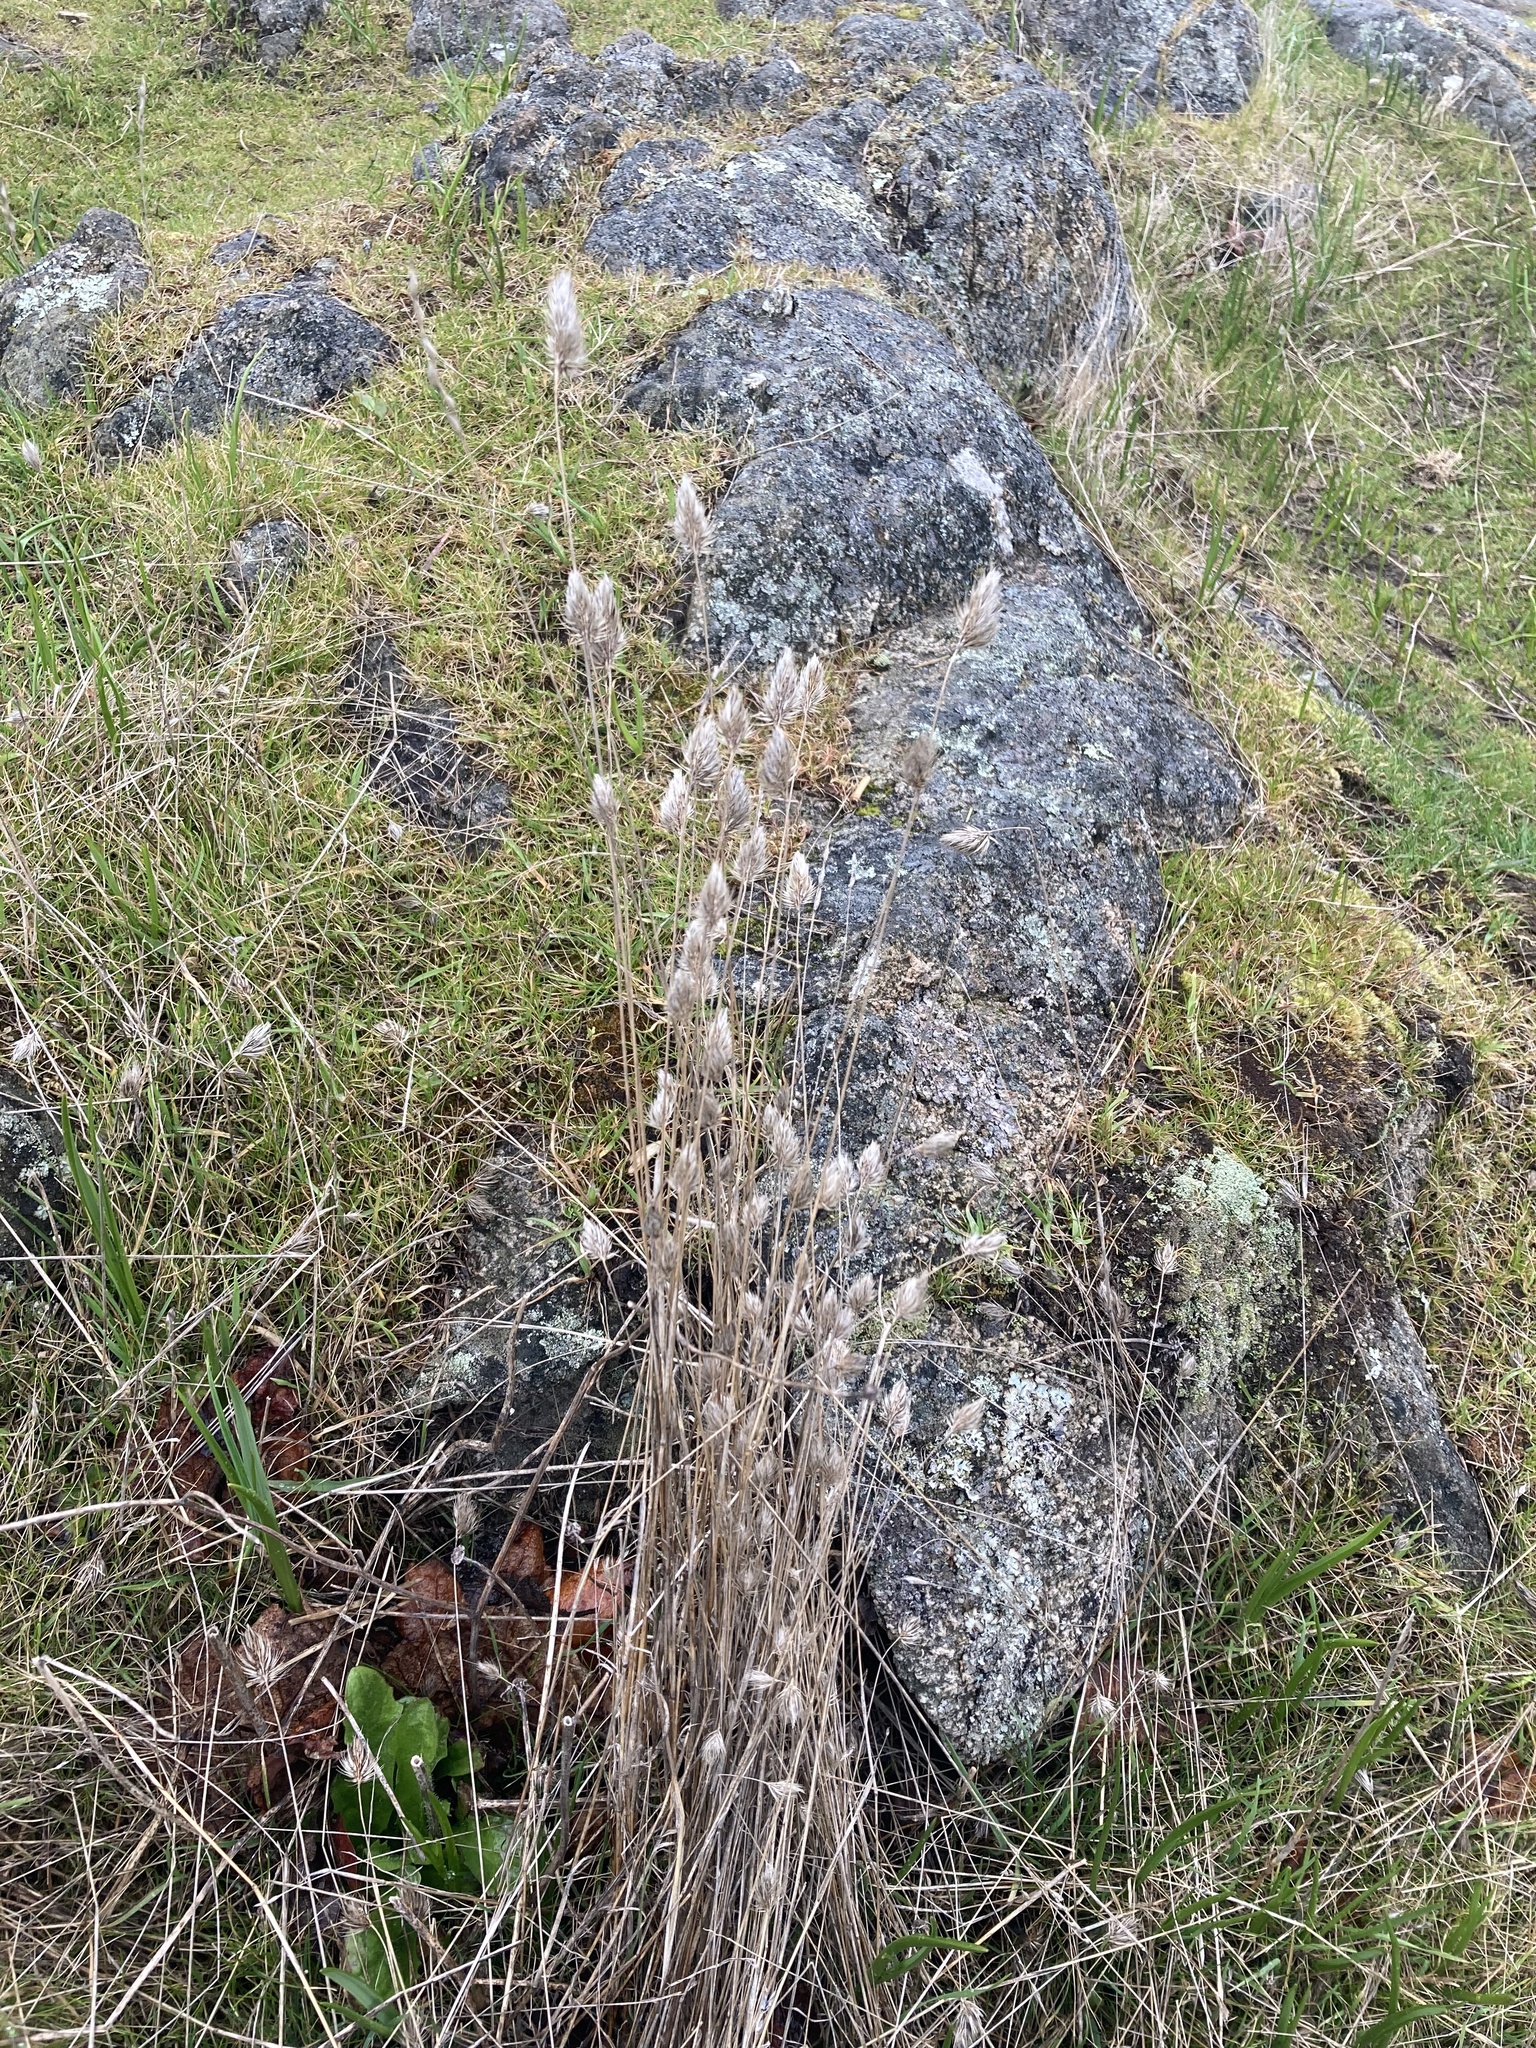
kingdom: Plantae
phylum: Tracheophyta
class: Liliopsida
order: Poales
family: Poaceae
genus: Cynosurus
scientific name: Cynosurus echinatus
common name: Rough dog's-tail
